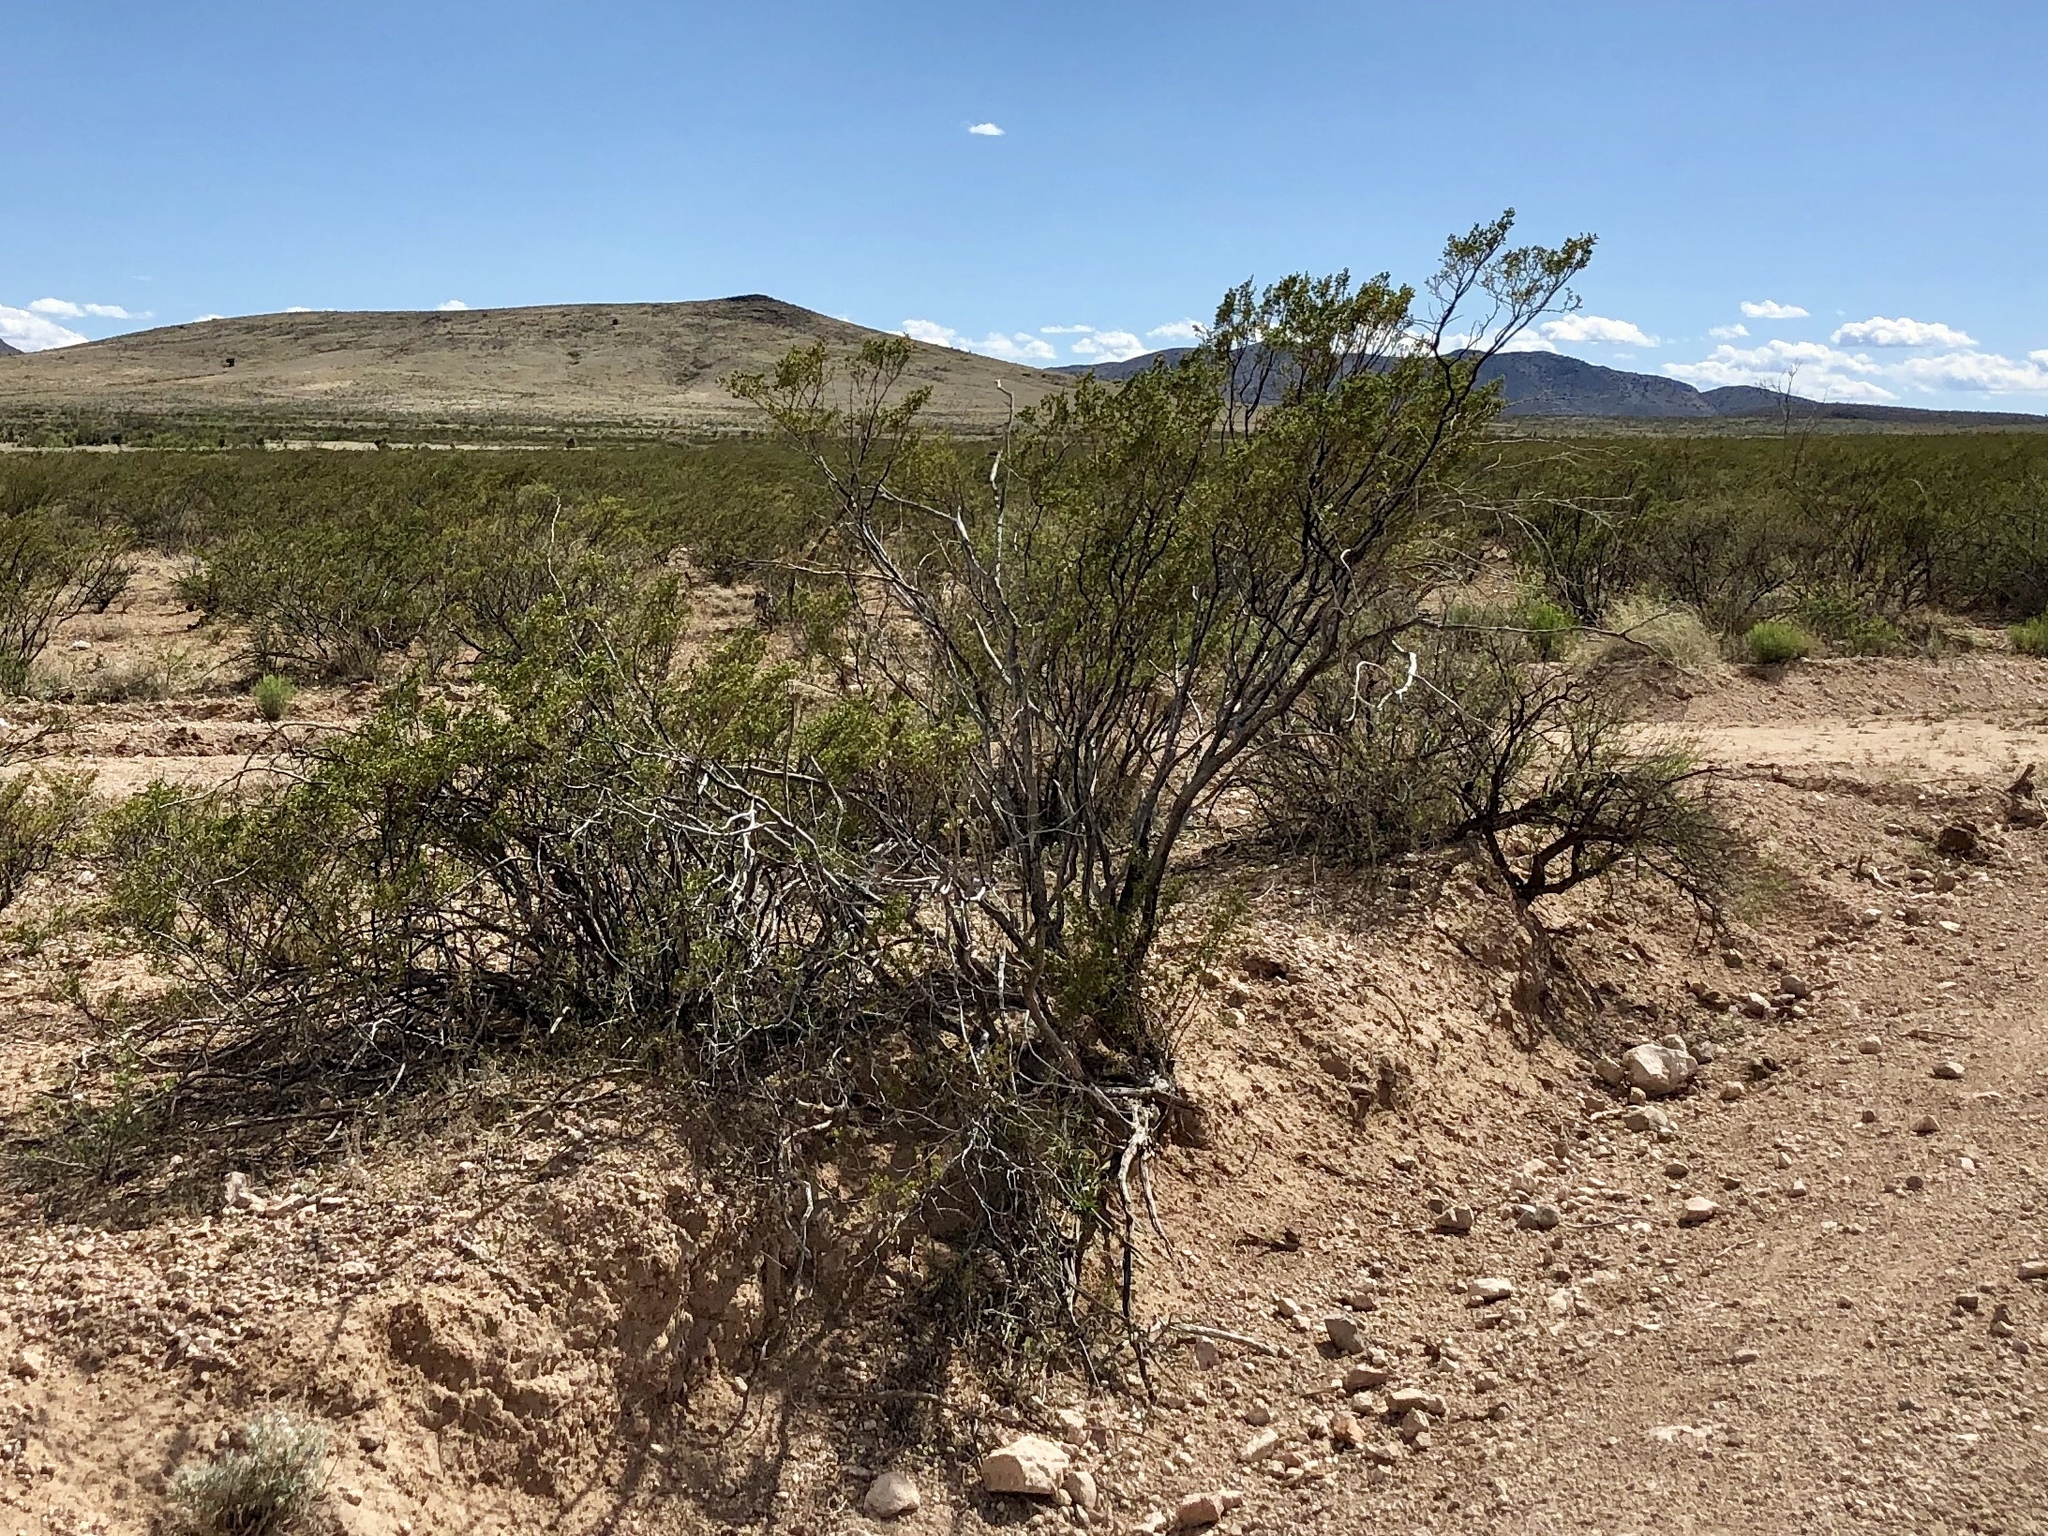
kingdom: Plantae
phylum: Tracheophyta
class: Magnoliopsida
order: Zygophyllales
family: Zygophyllaceae
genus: Larrea
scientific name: Larrea tridentata
